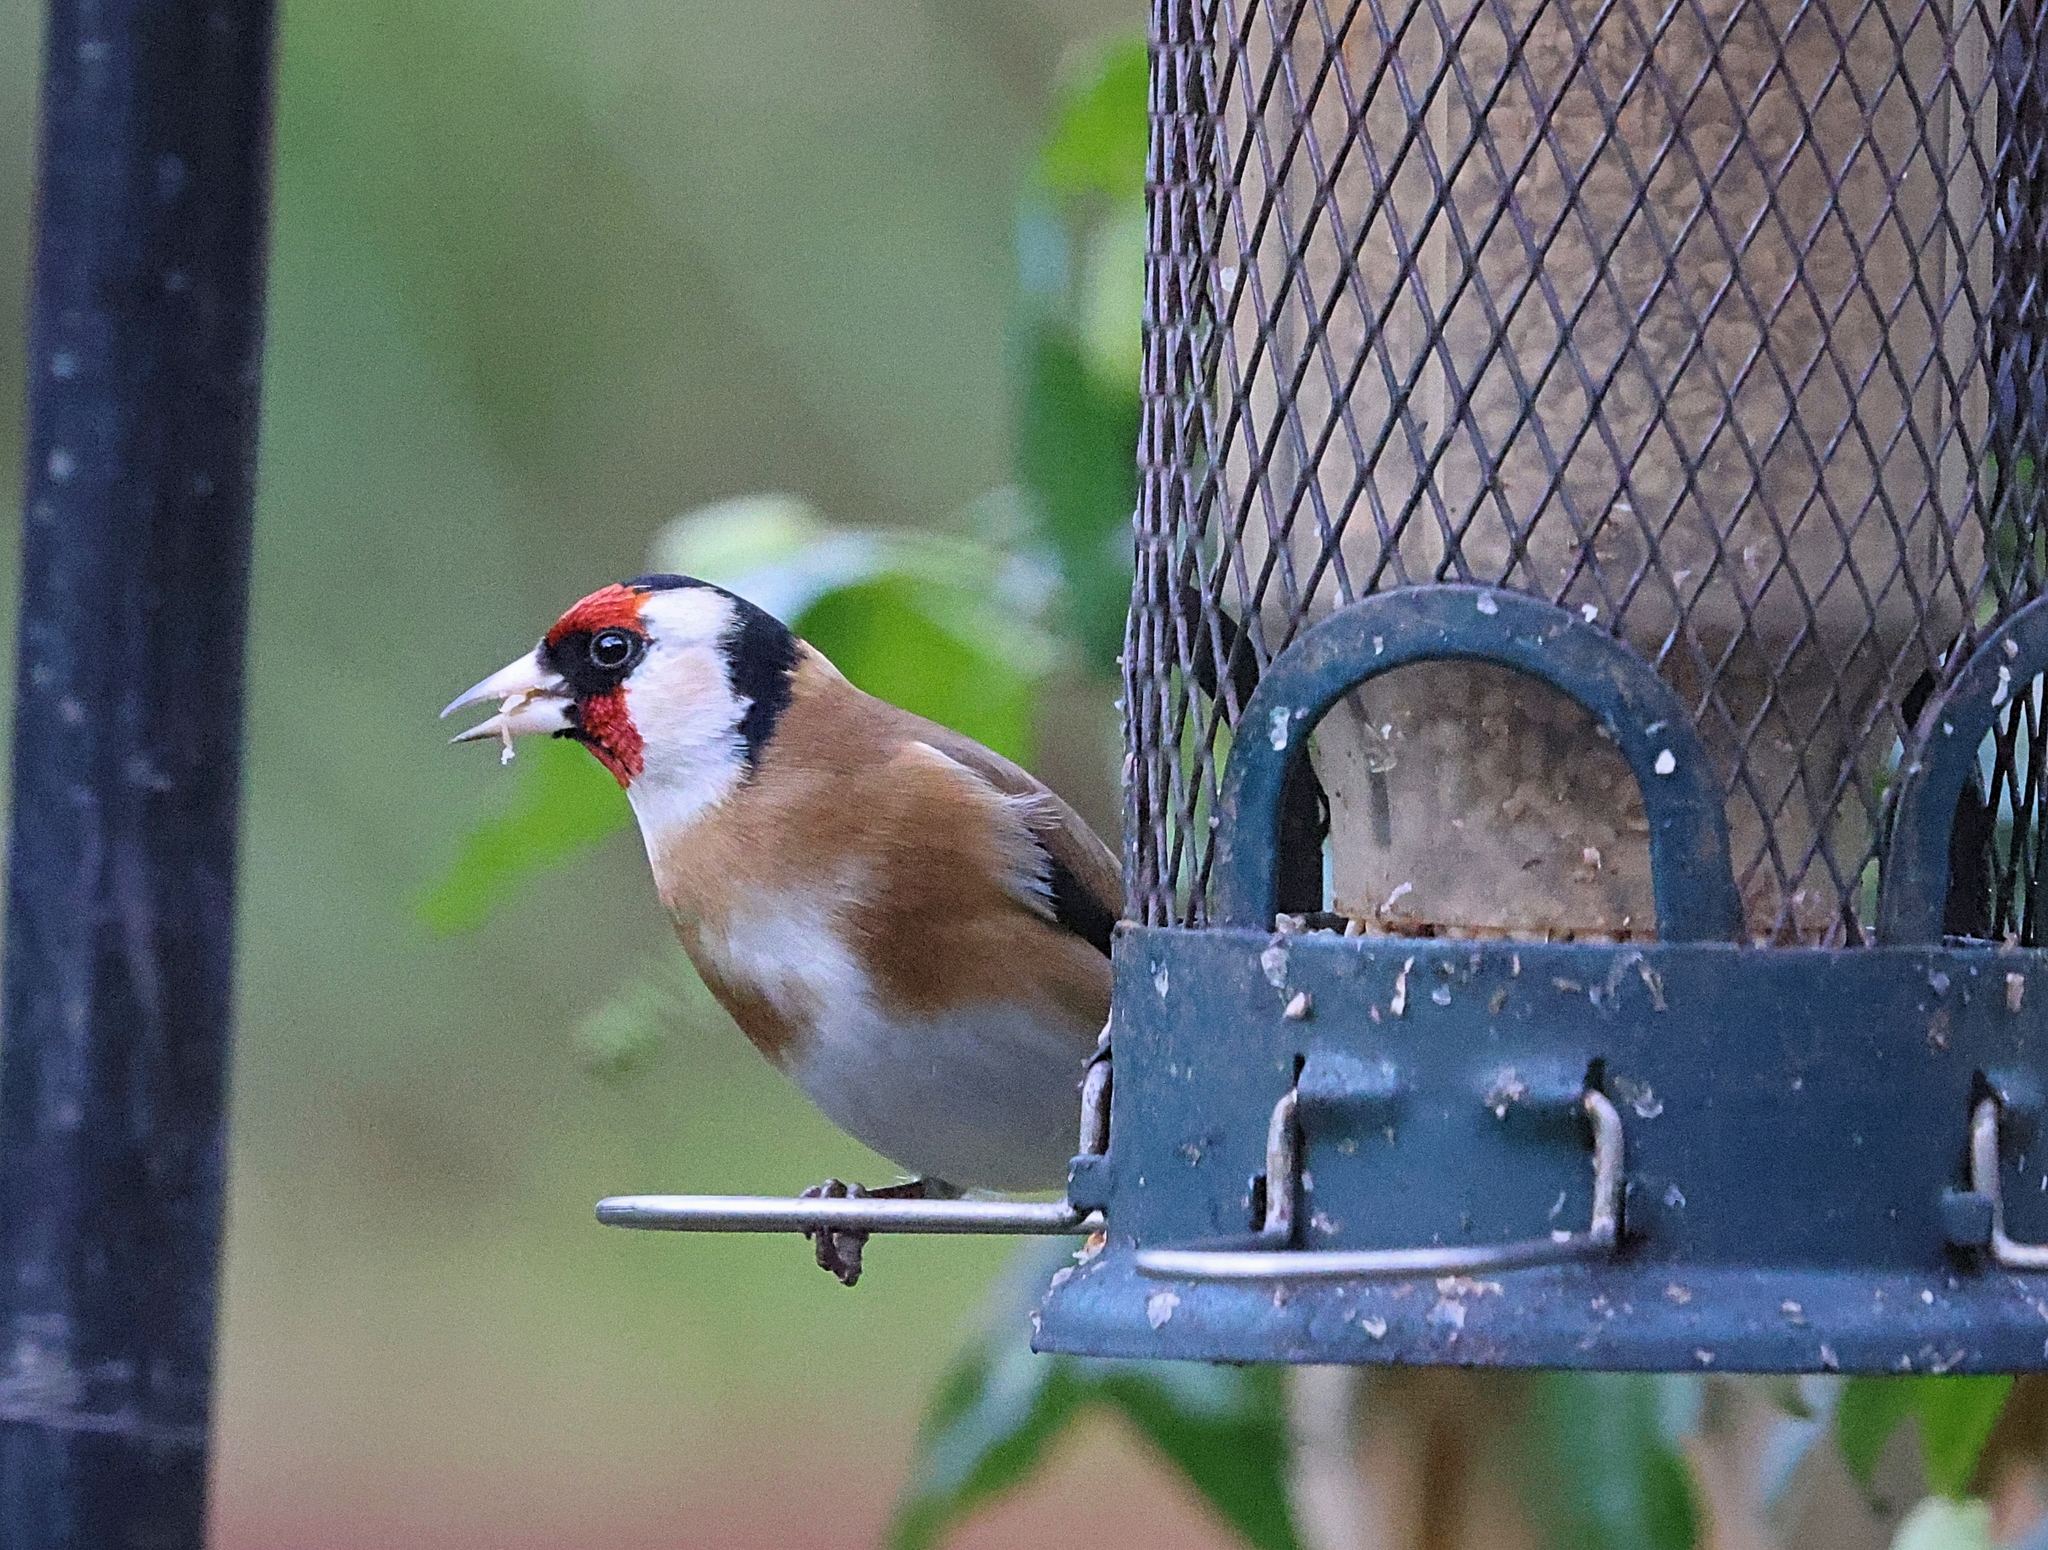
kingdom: Animalia
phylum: Chordata
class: Aves
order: Passeriformes
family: Fringillidae
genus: Carduelis
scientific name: Carduelis carduelis
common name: European goldfinch
